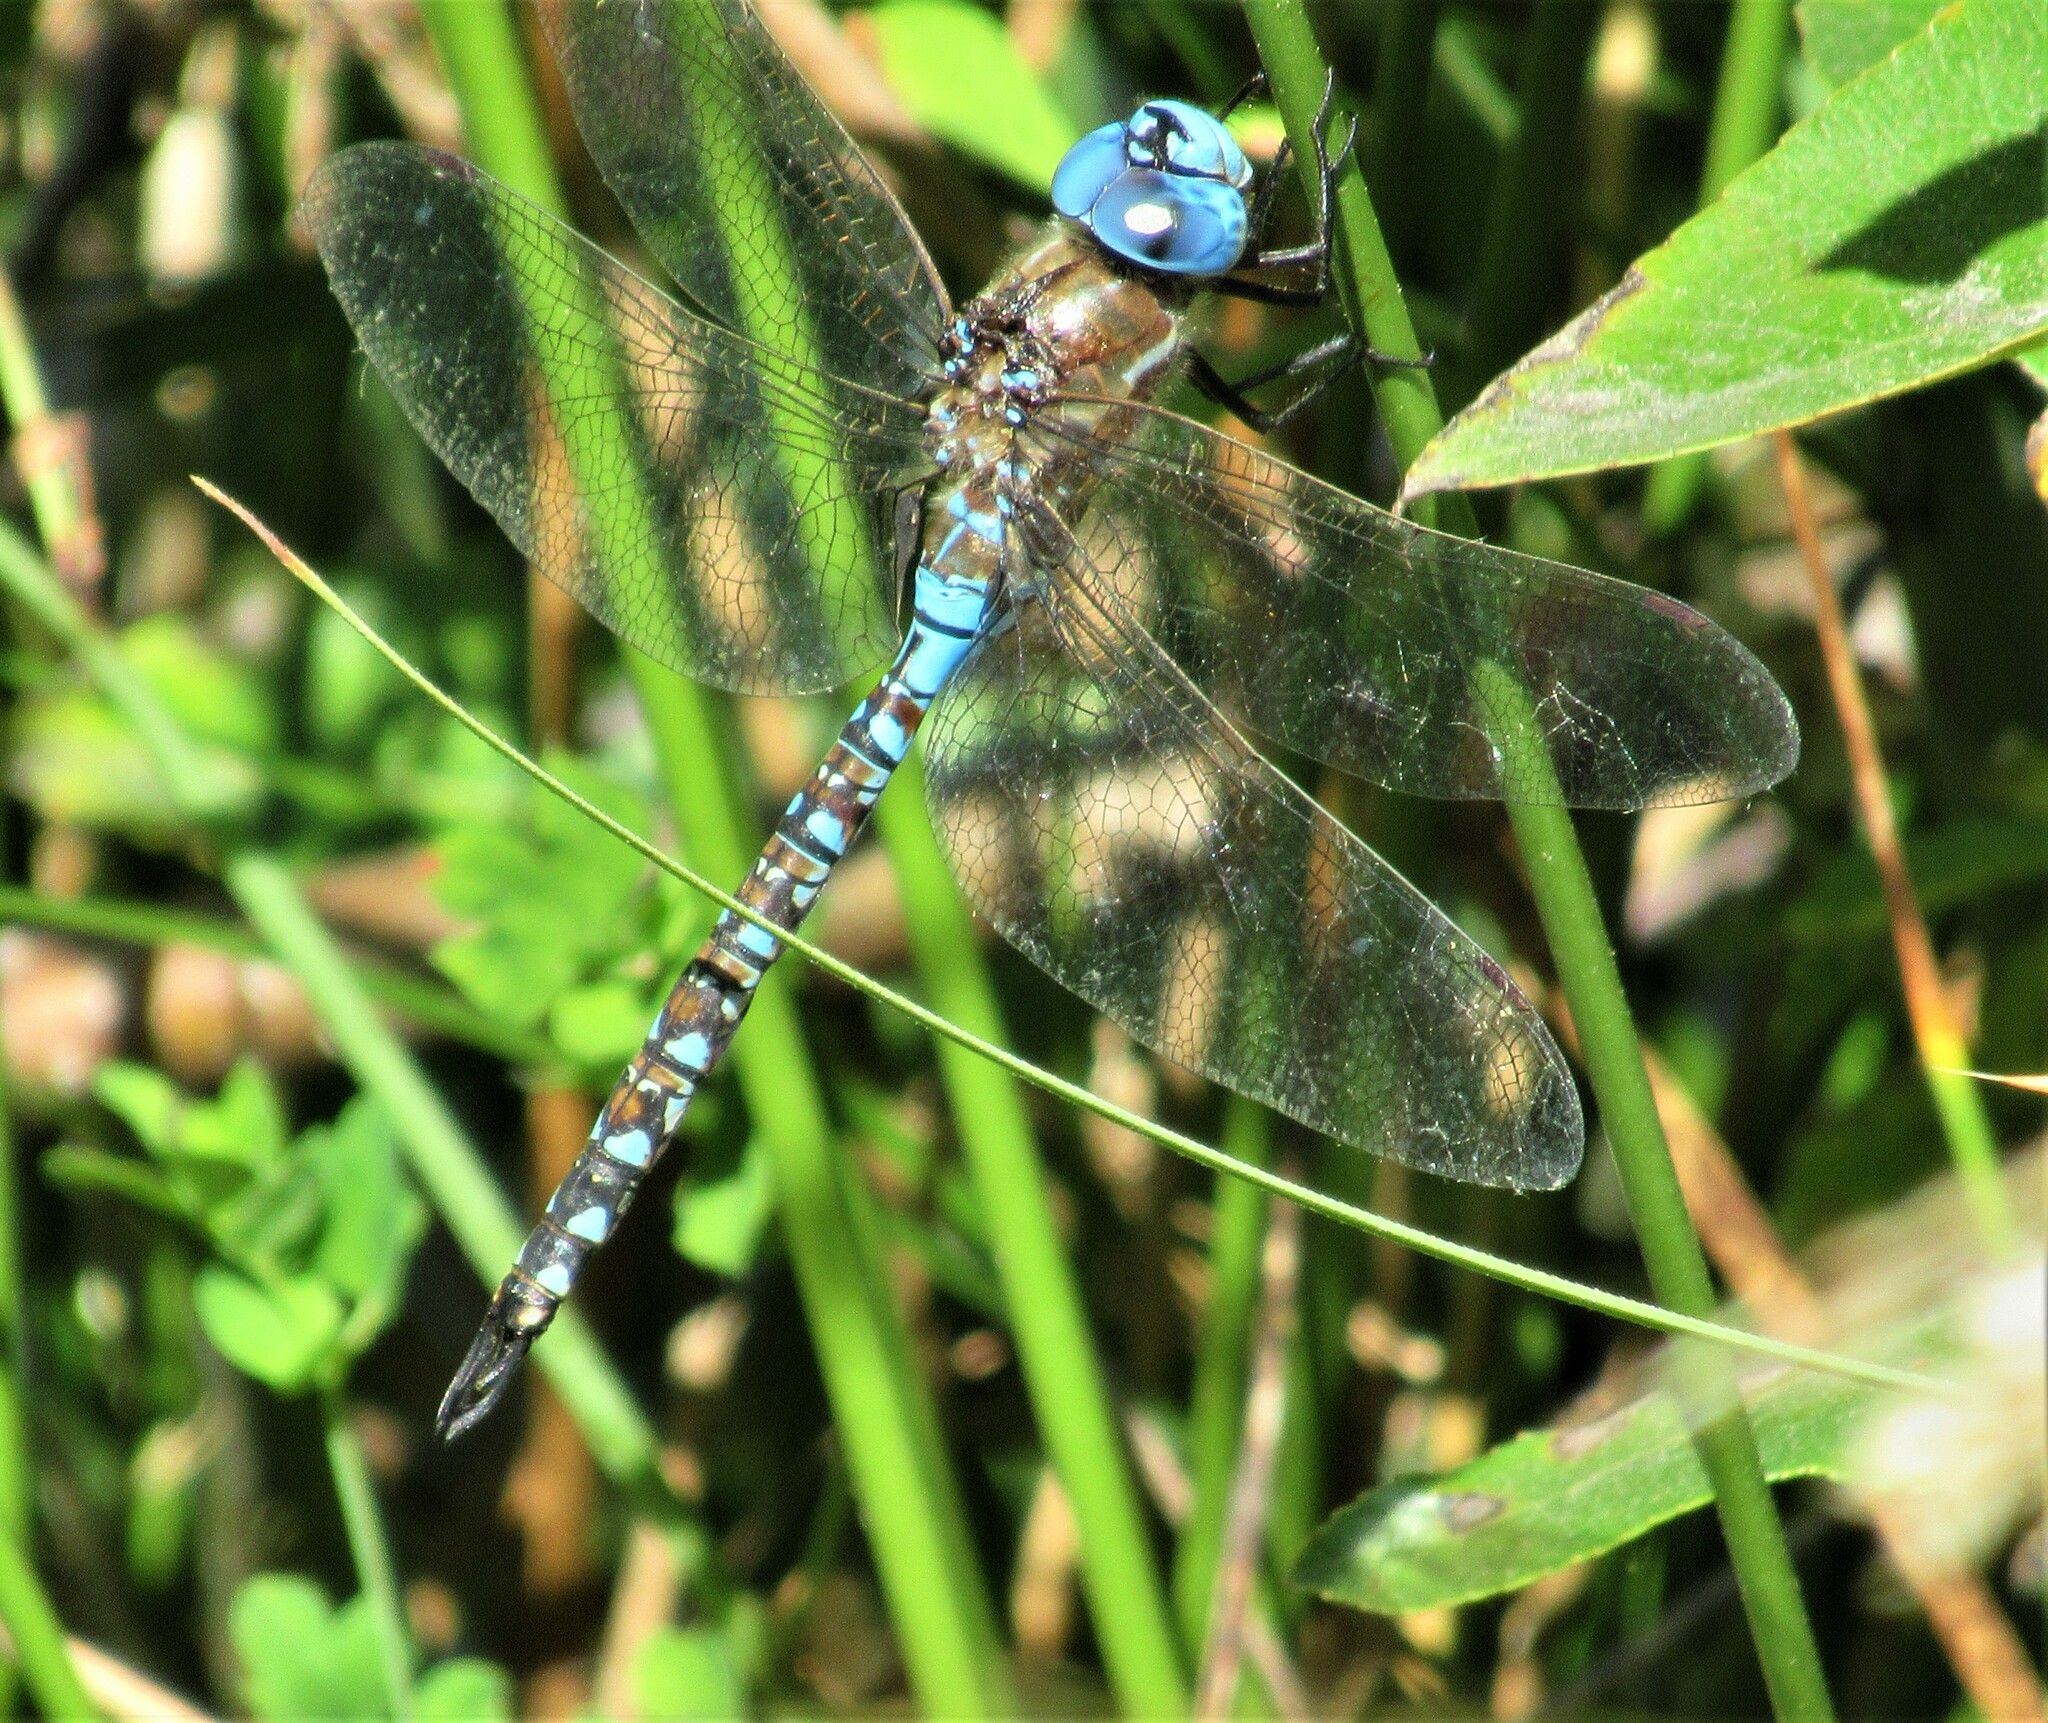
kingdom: Animalia
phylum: Arthropoda
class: Insecta
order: Odonata
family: Aeshnidae
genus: Rhionaeschna
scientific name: Rhionaeschna multicolor
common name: Blue-eyed darner
